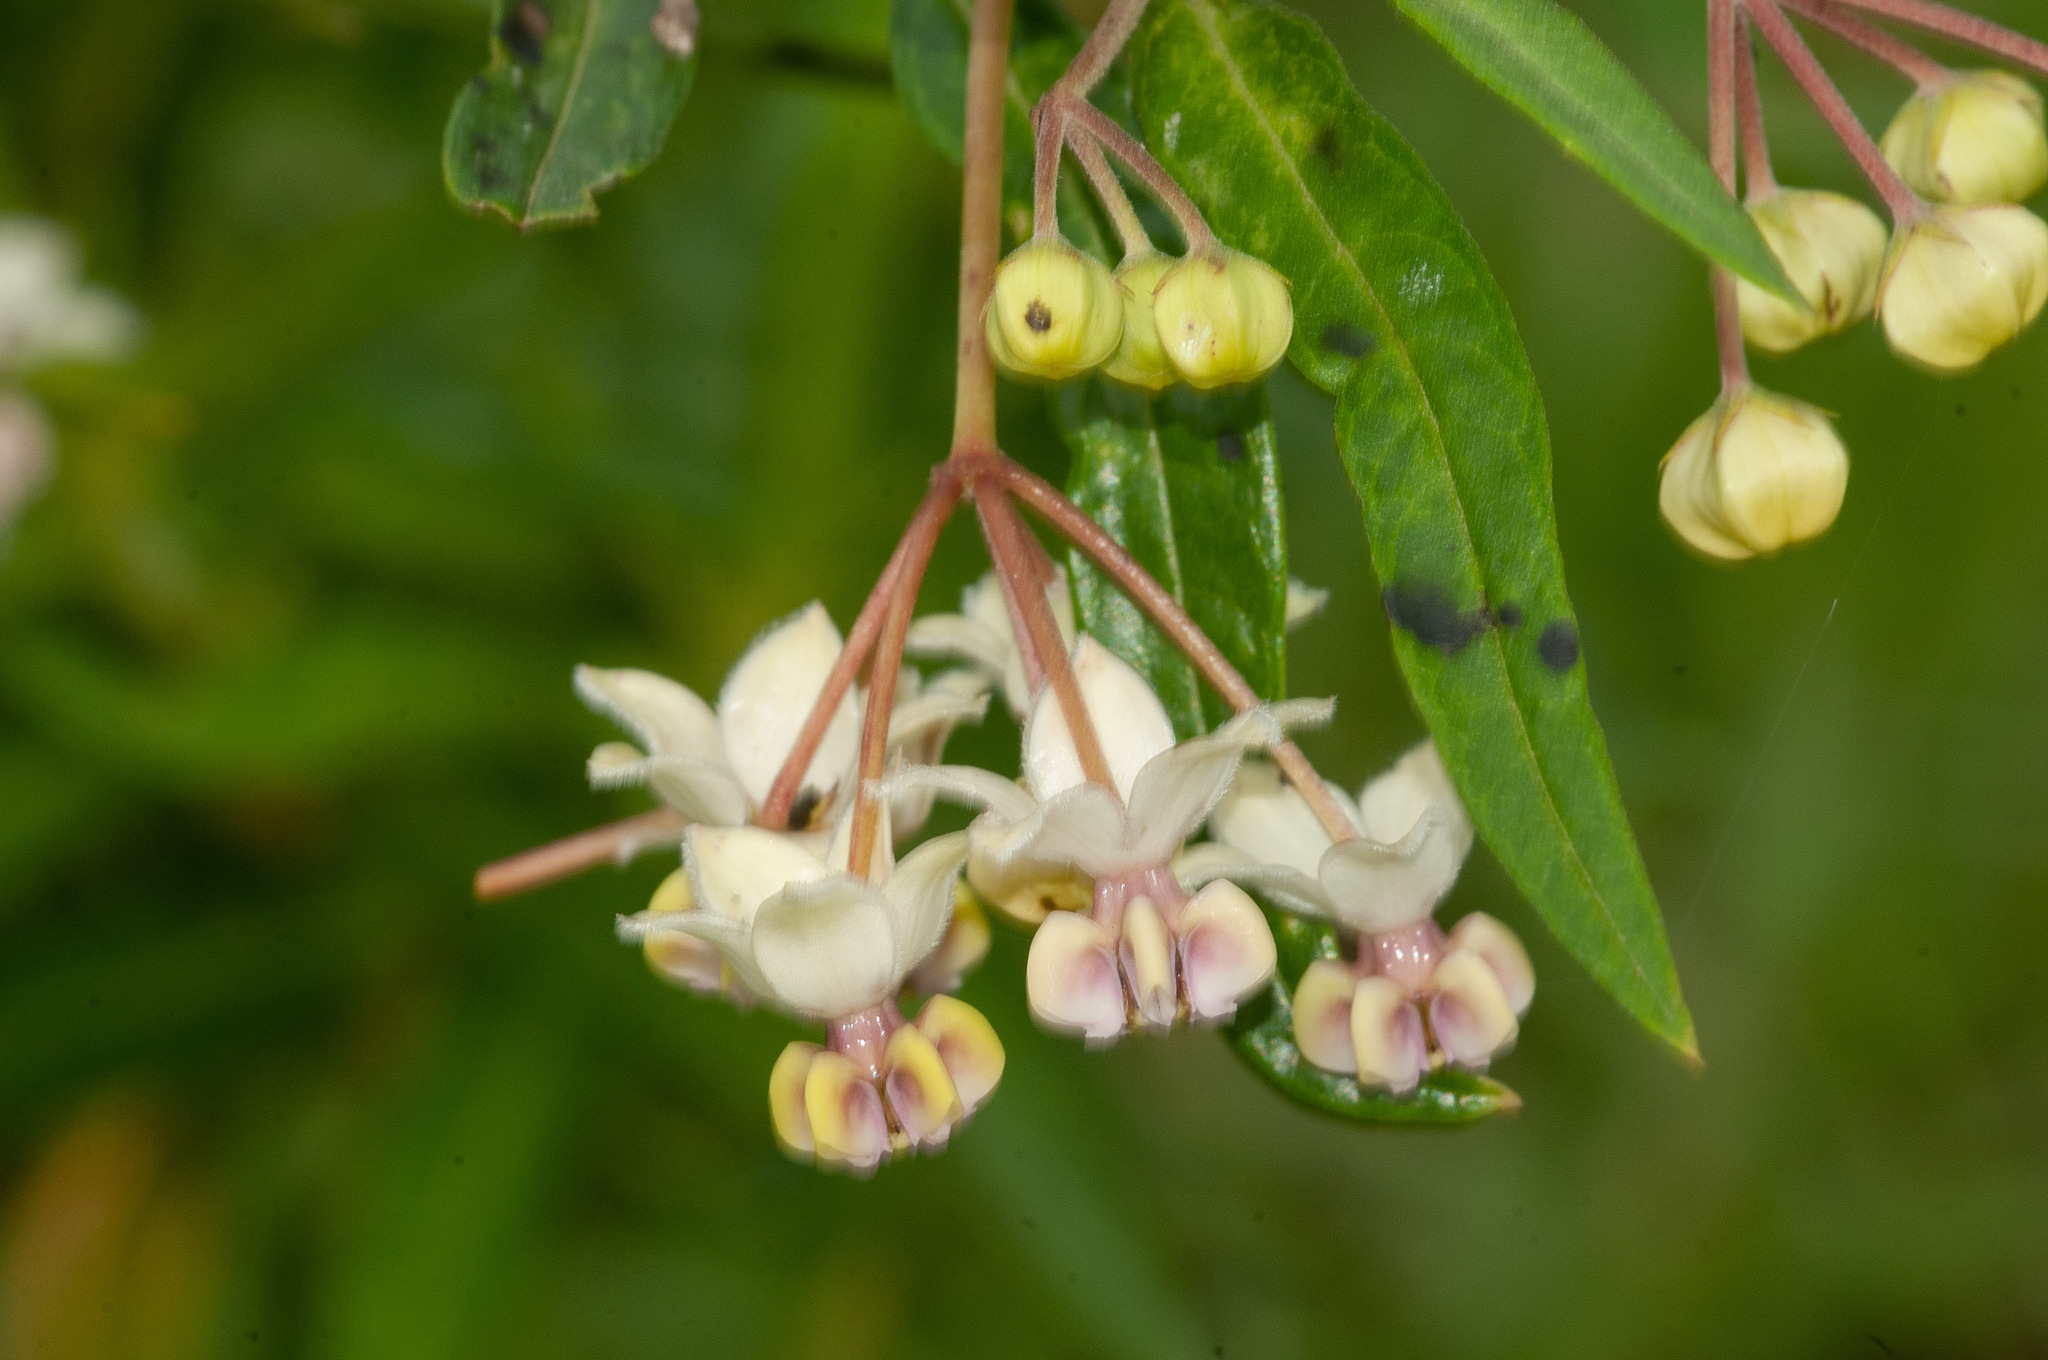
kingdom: Plantae
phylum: Tracheophyta
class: Magnoliopsida
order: Gentianales
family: Apocynaceae
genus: Gomphocarpus
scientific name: Gomphocarpus physocarpus
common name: Balloon cotton bush
